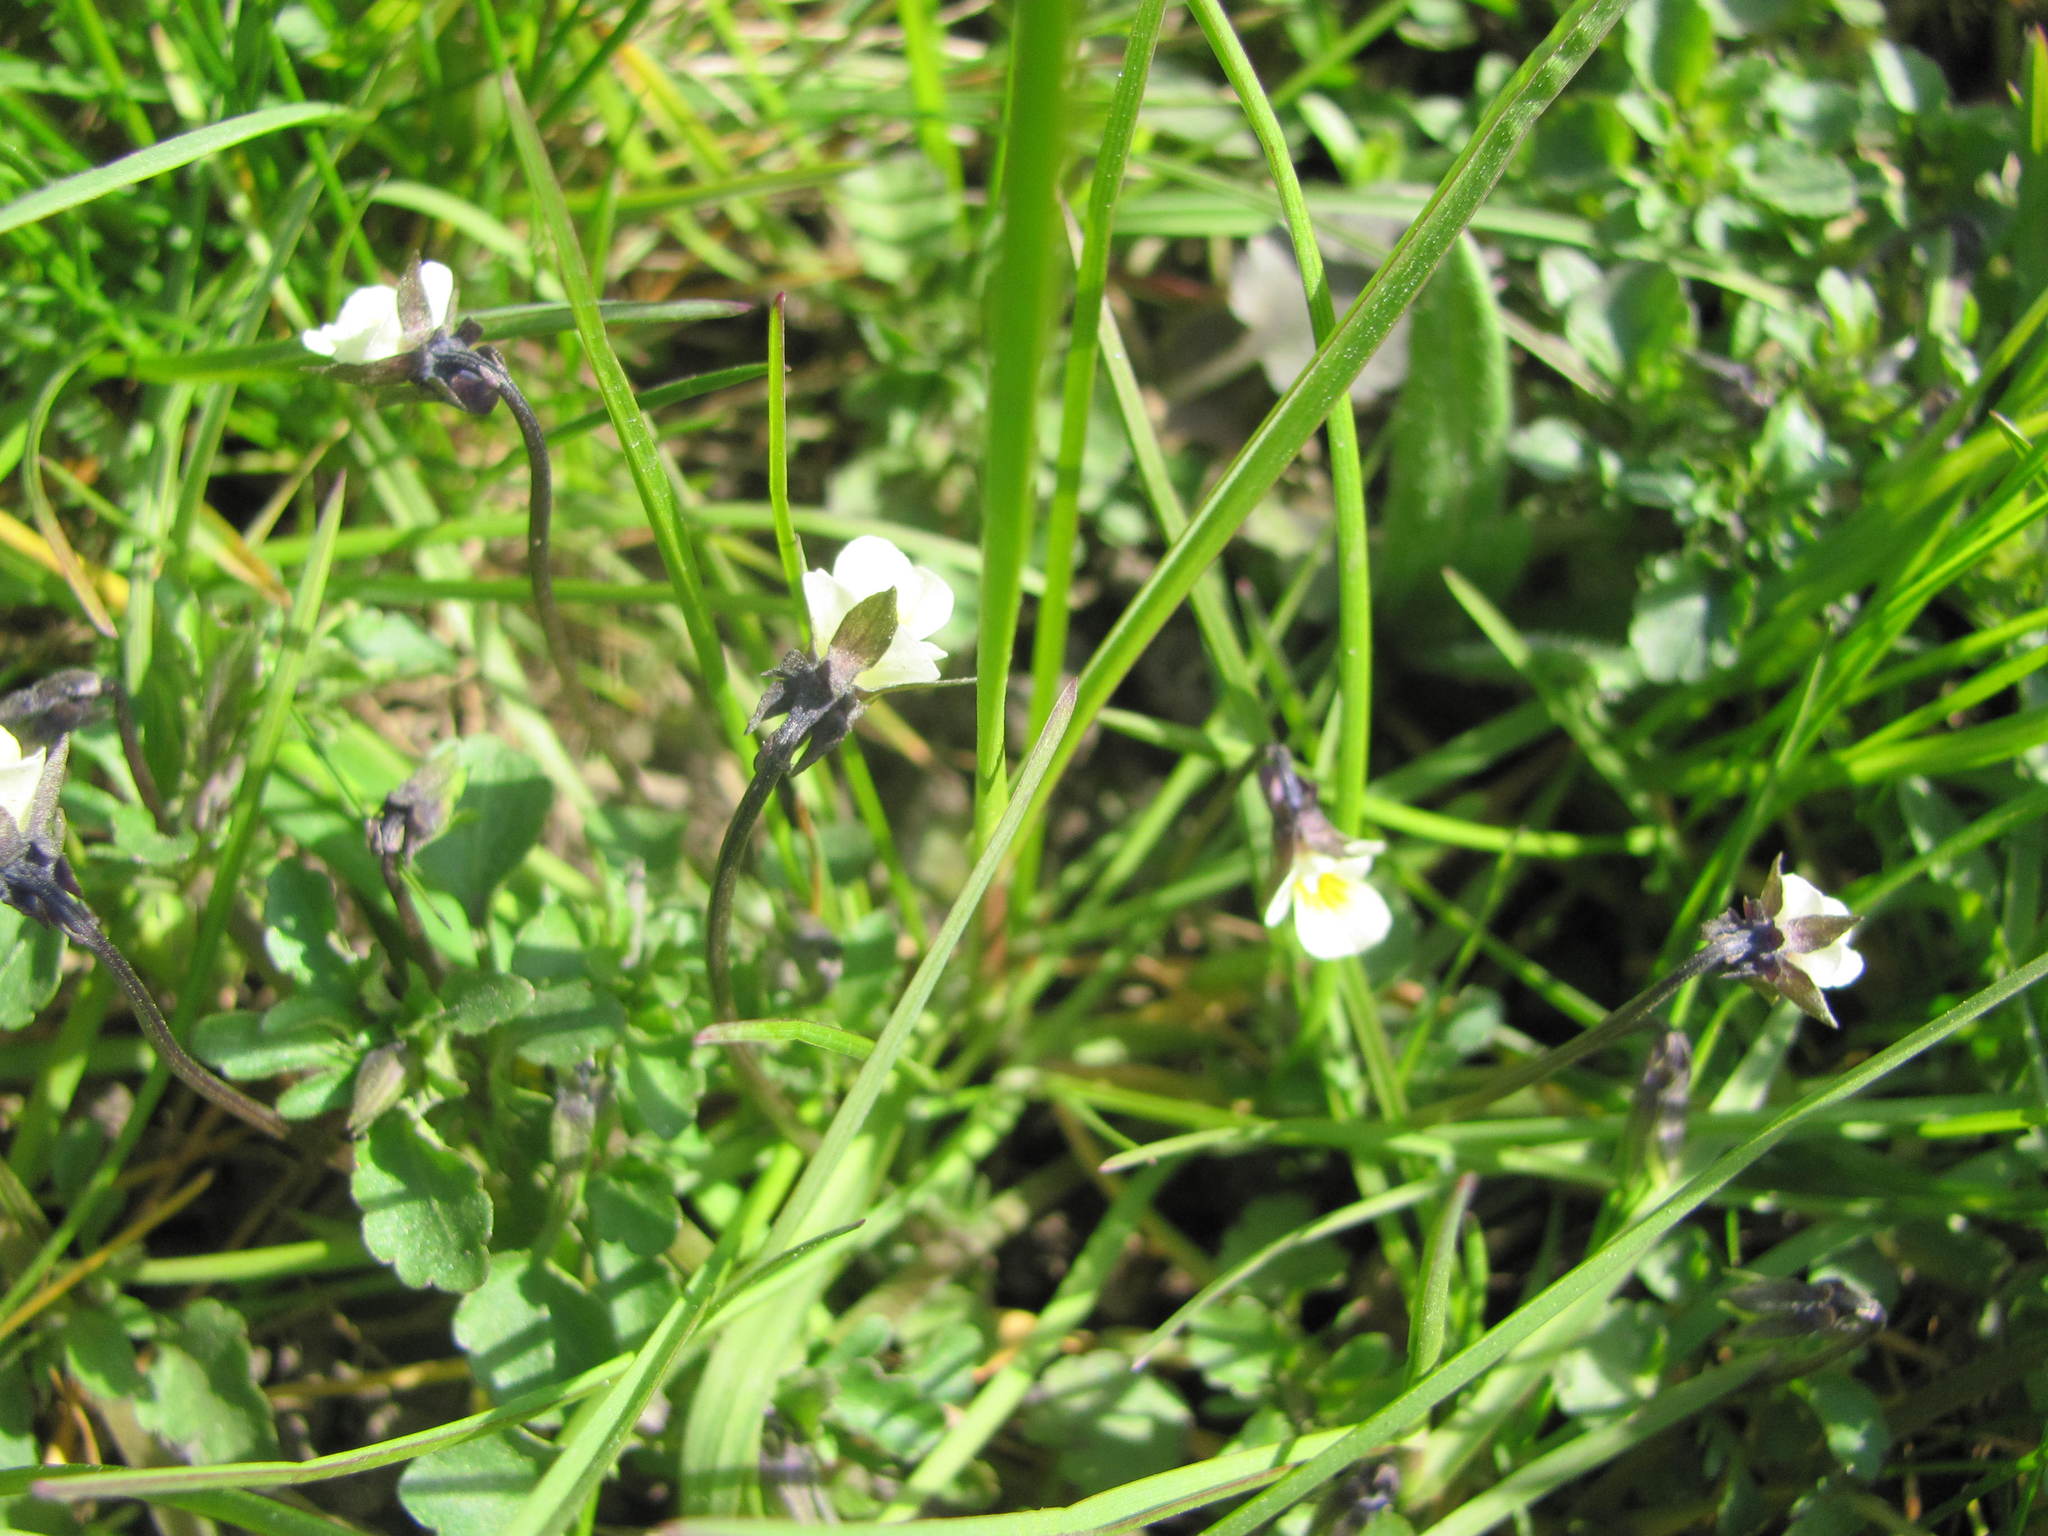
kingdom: Plantae
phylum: Tracheophyta
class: Magnoliopsida
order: Malpighiales
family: Violaceae
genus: Viola
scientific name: Viola arvensis
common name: Field pansy
